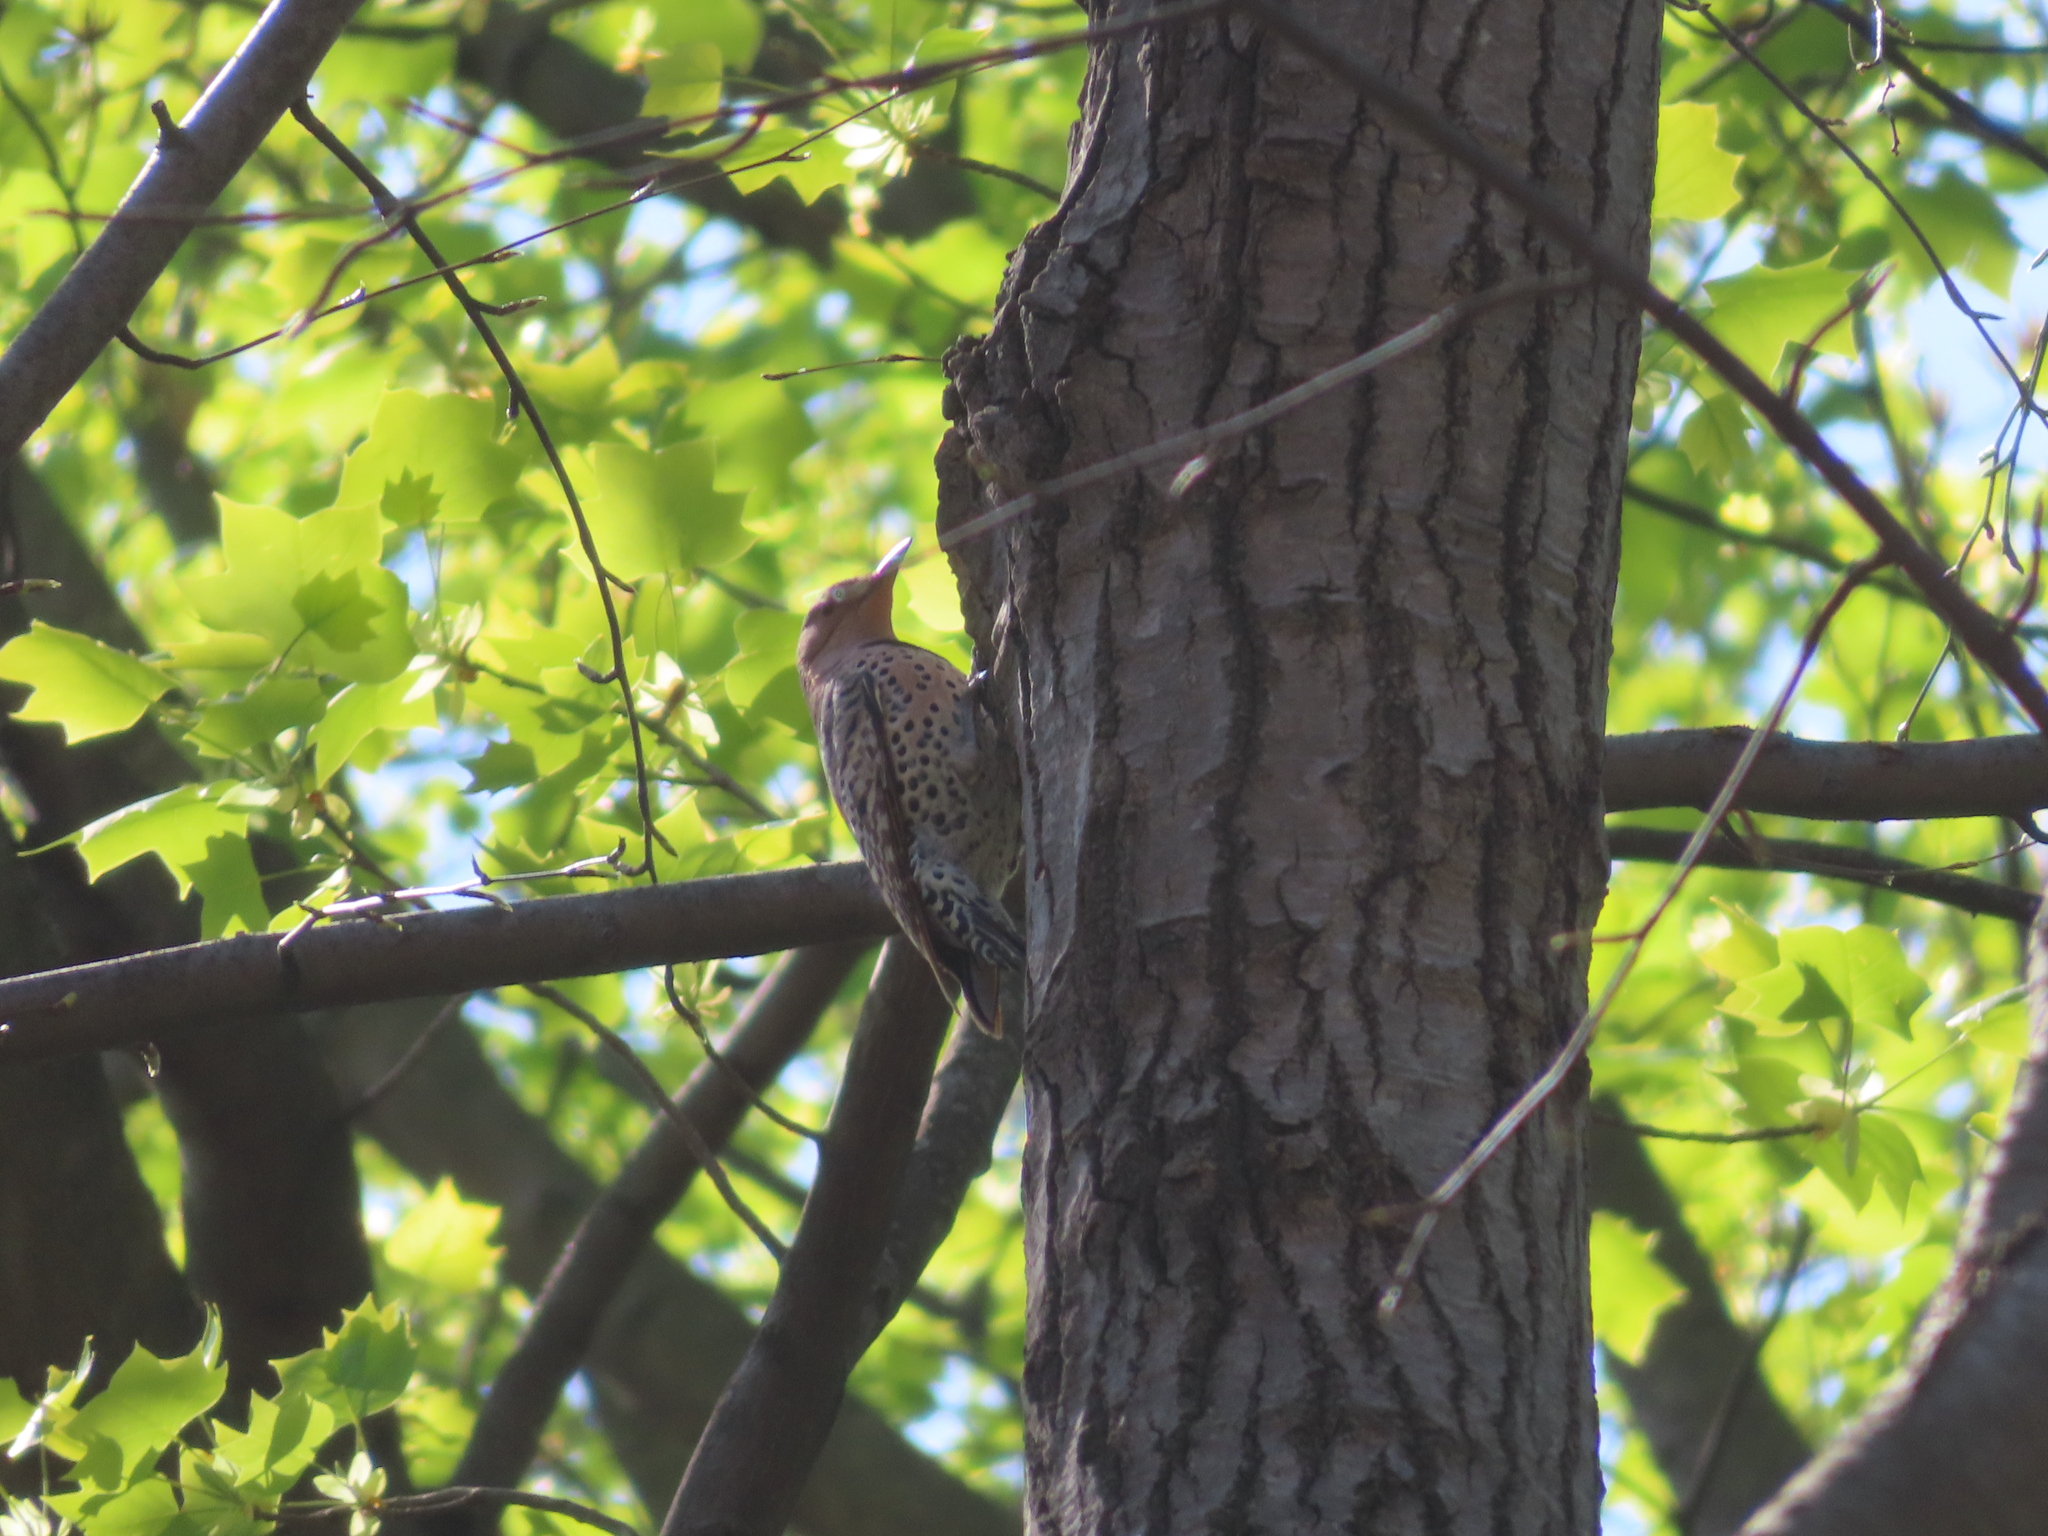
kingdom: Animalia
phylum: Chordata
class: Aves
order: Piciformes
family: Picidae
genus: Colaptes
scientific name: Colaptes auratus
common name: Northern flicker
